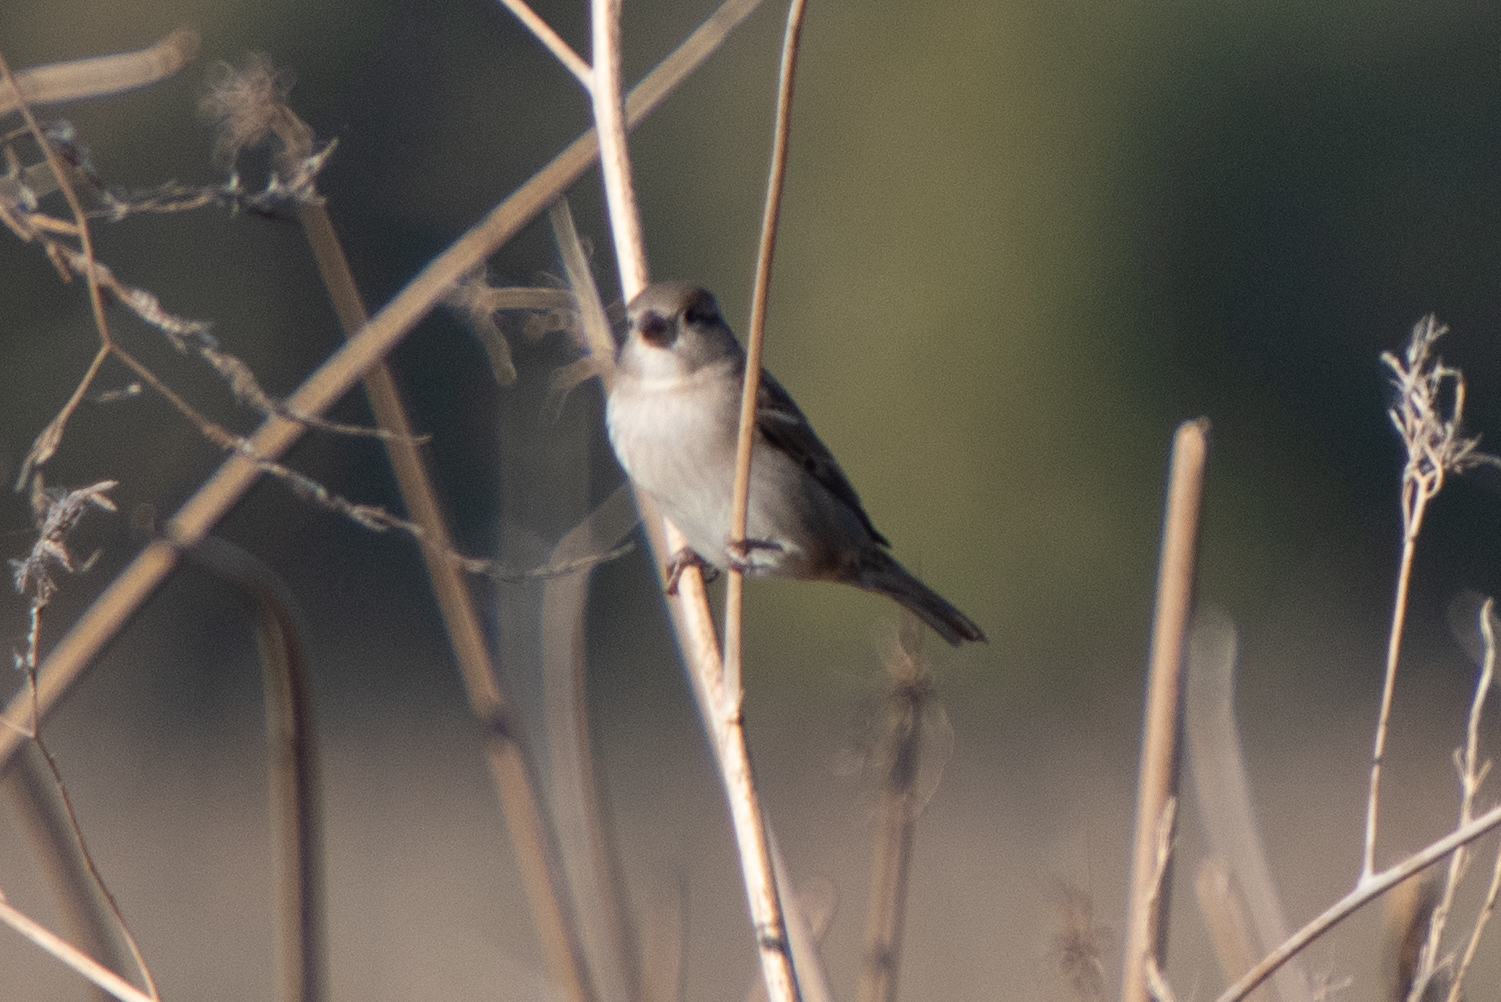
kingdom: Animalia
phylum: Chordata
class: Aves
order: Passeriformes
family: Passeridae
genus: Passer
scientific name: Passer domesticus
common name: House sparrow
